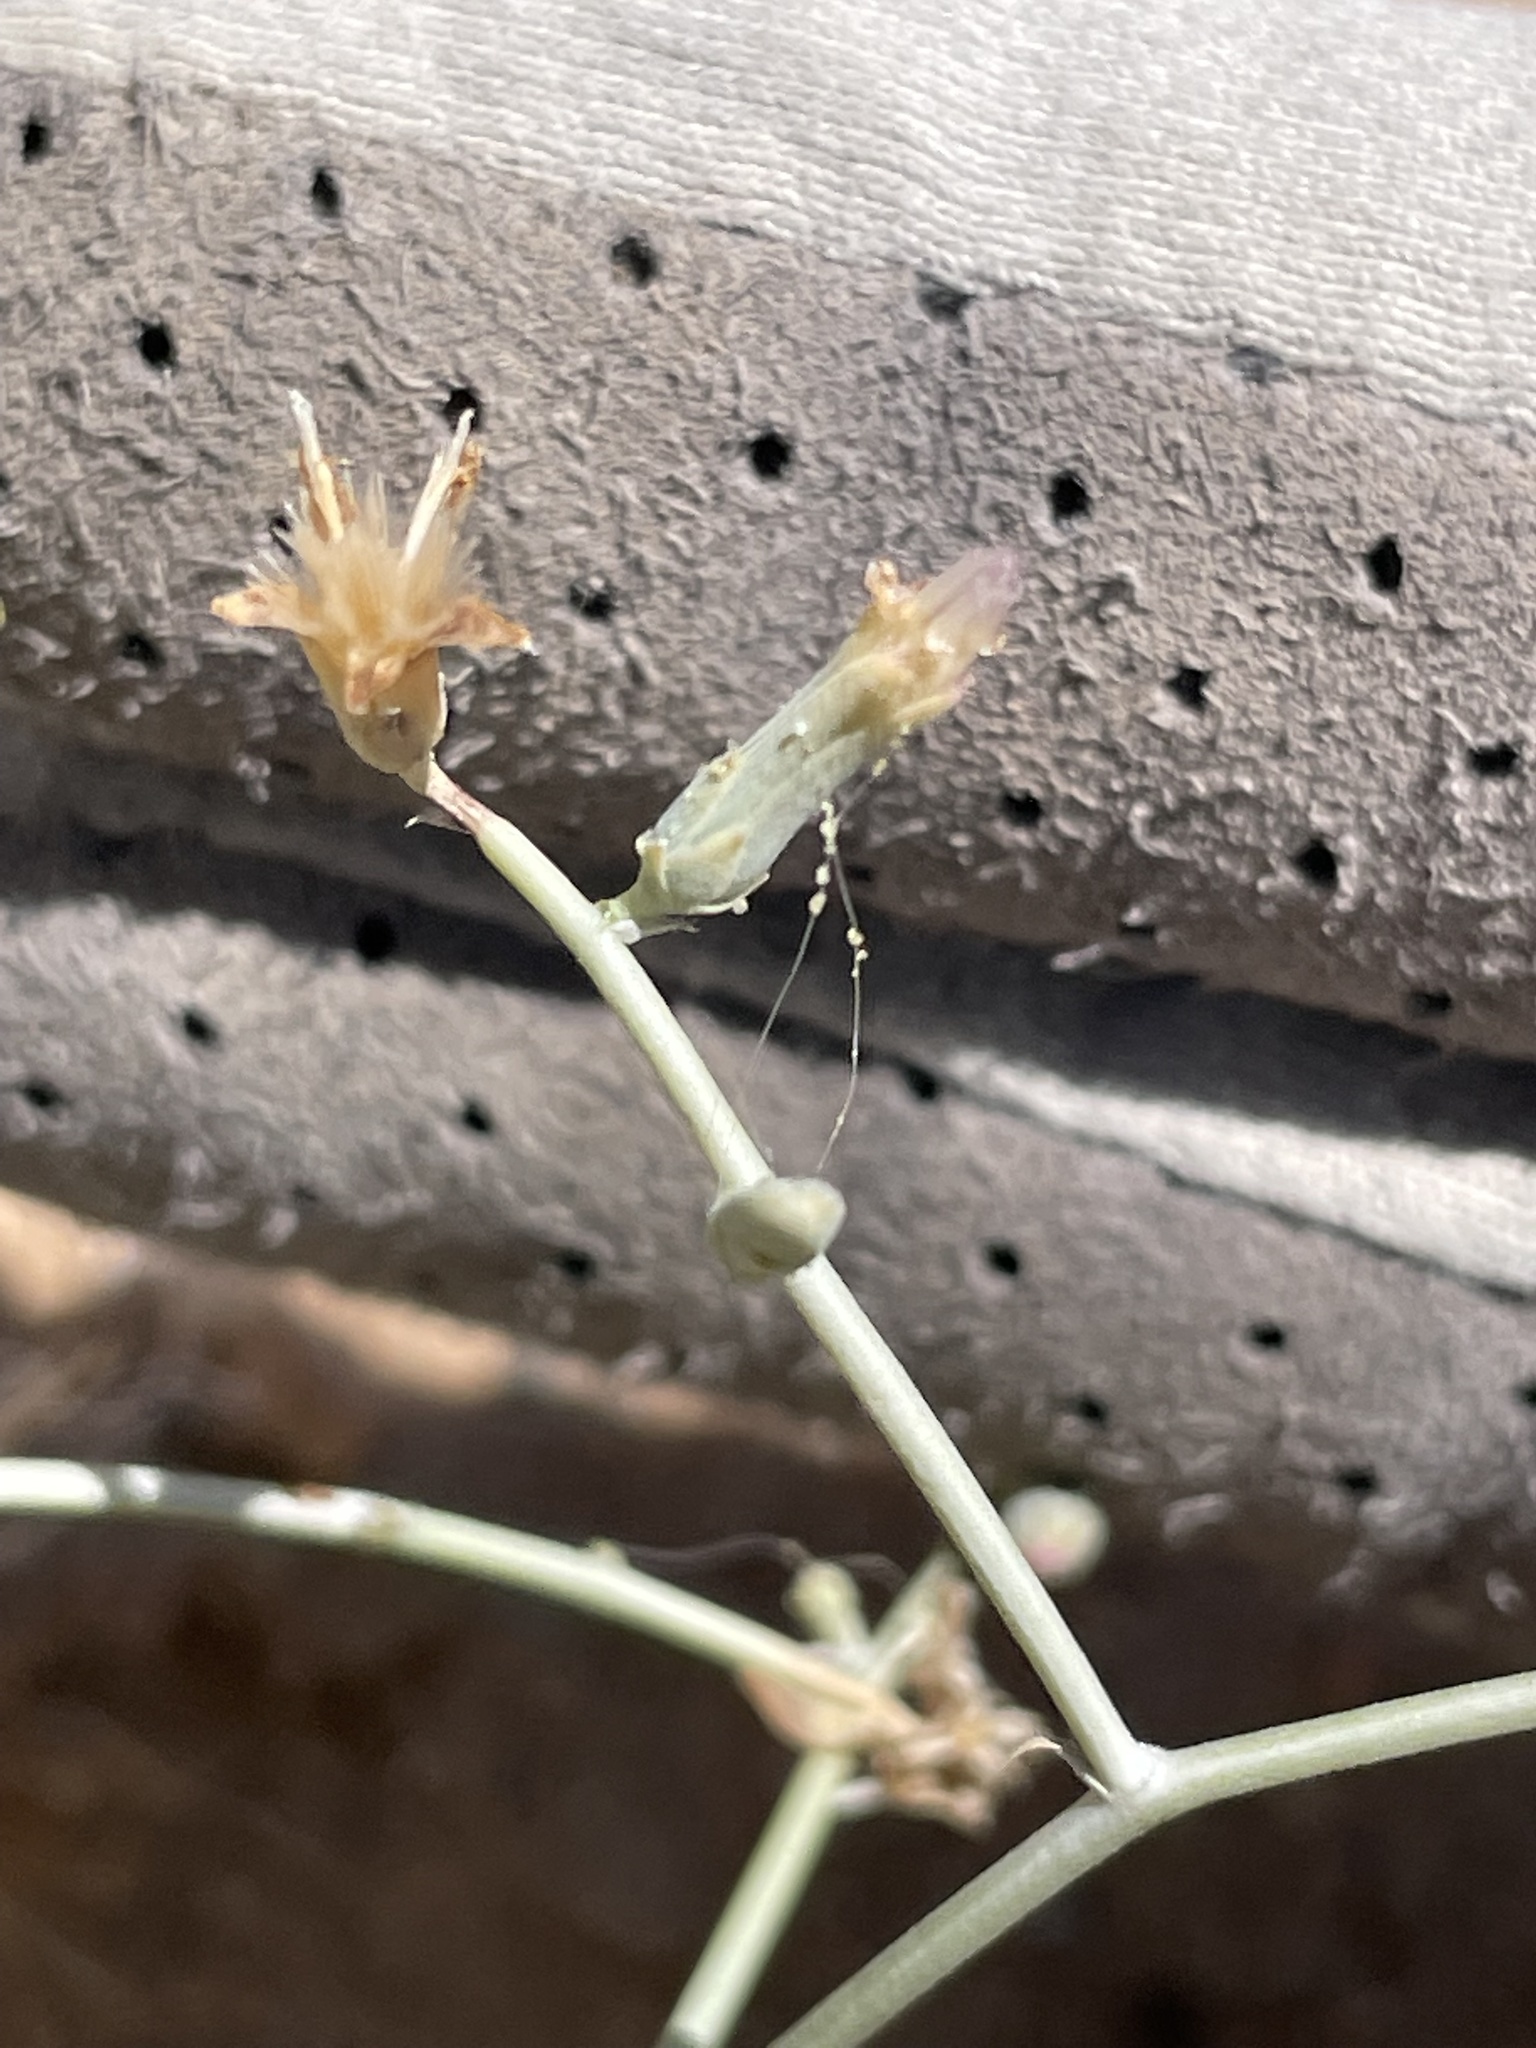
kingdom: Plantae
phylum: Tracheophyta
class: Magnoliopsida
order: Asterales
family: Asteraceae
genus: Stephanomeria
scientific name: Stephanomeria pauciflora
